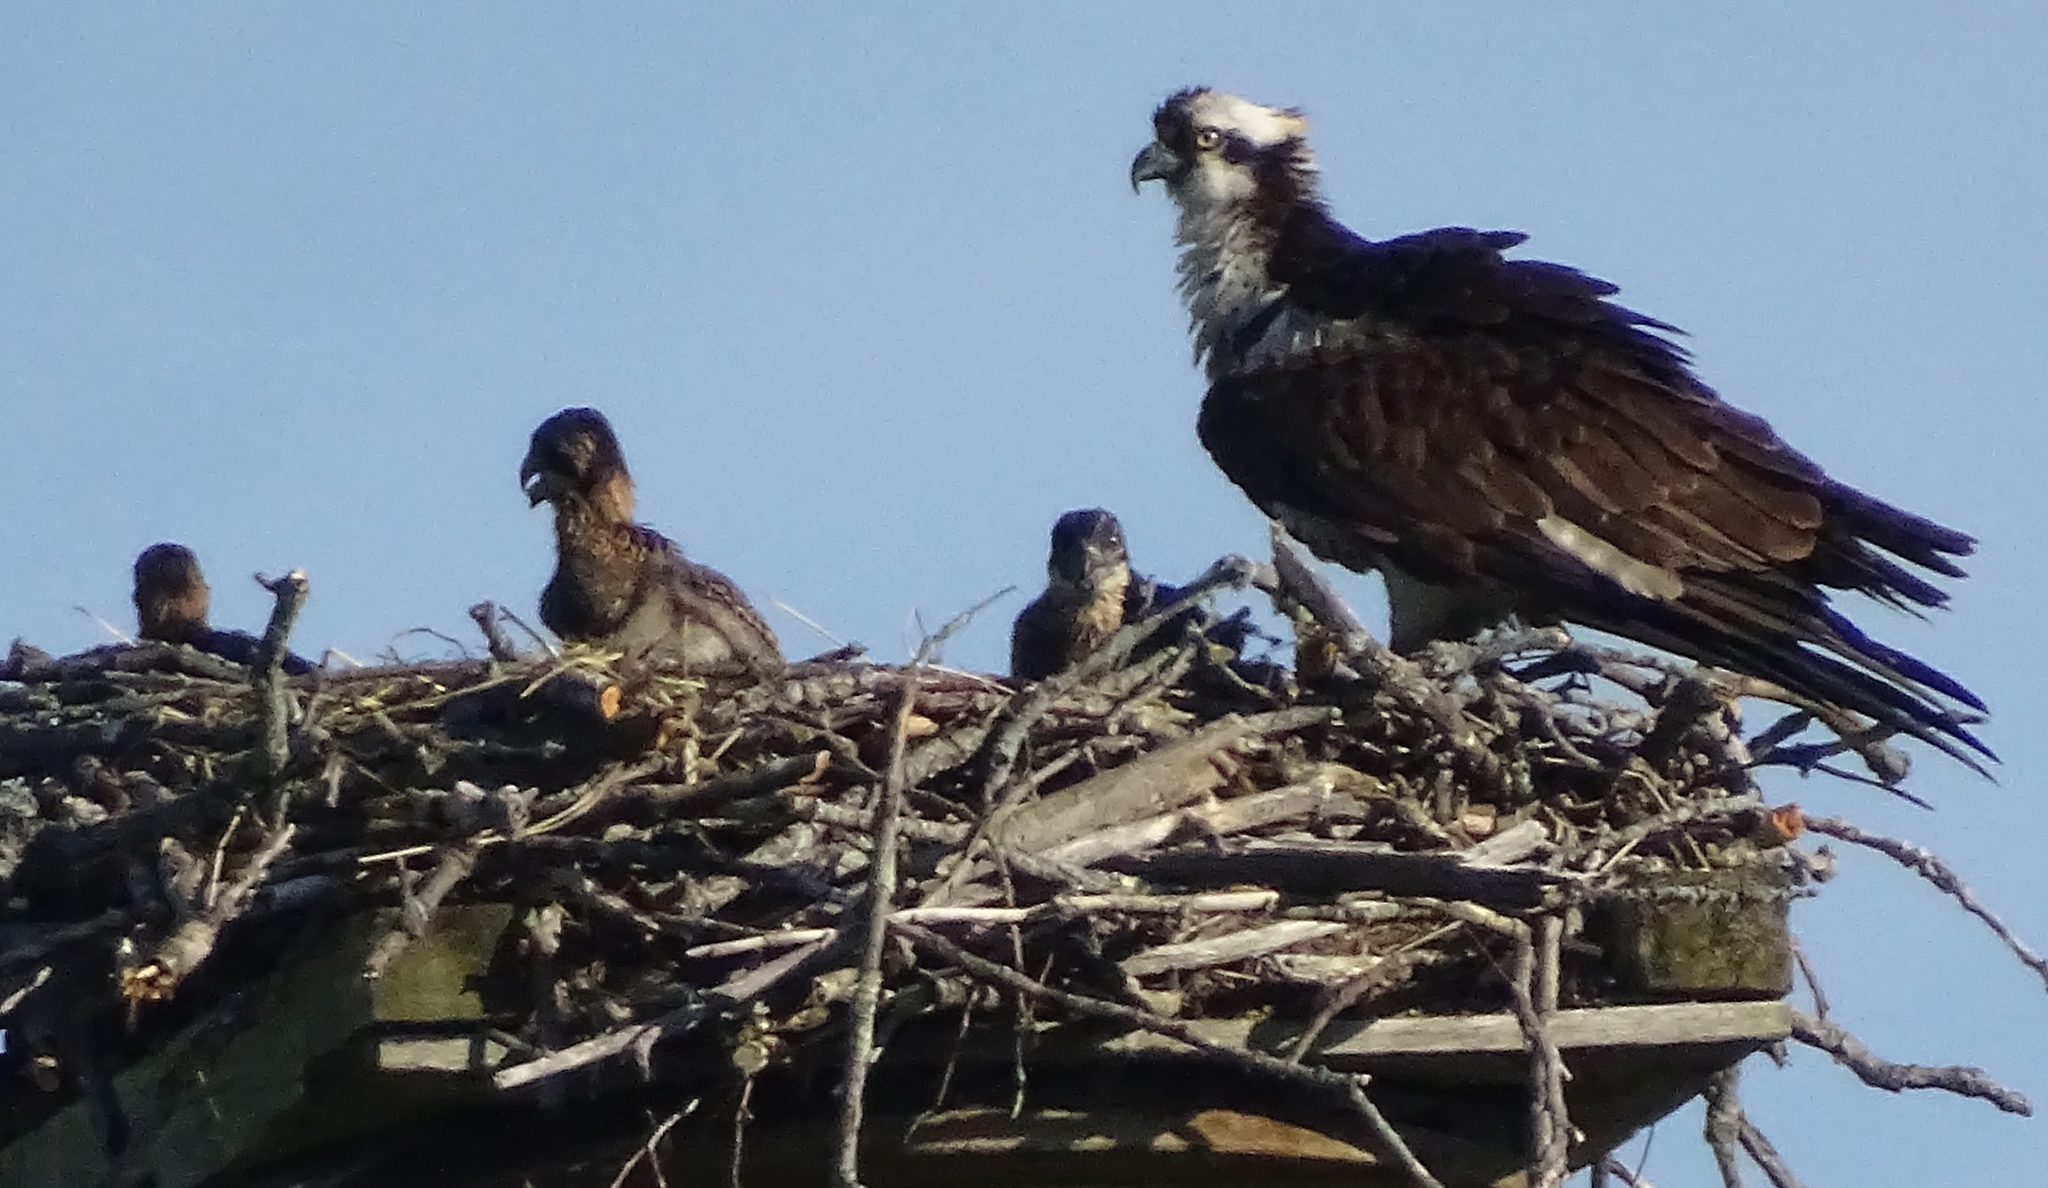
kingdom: Animalia
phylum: Chordata
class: Aves
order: Accipitriformes
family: Pandionidae
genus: Pandion
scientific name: Pandion haliaetus
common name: Osprey
